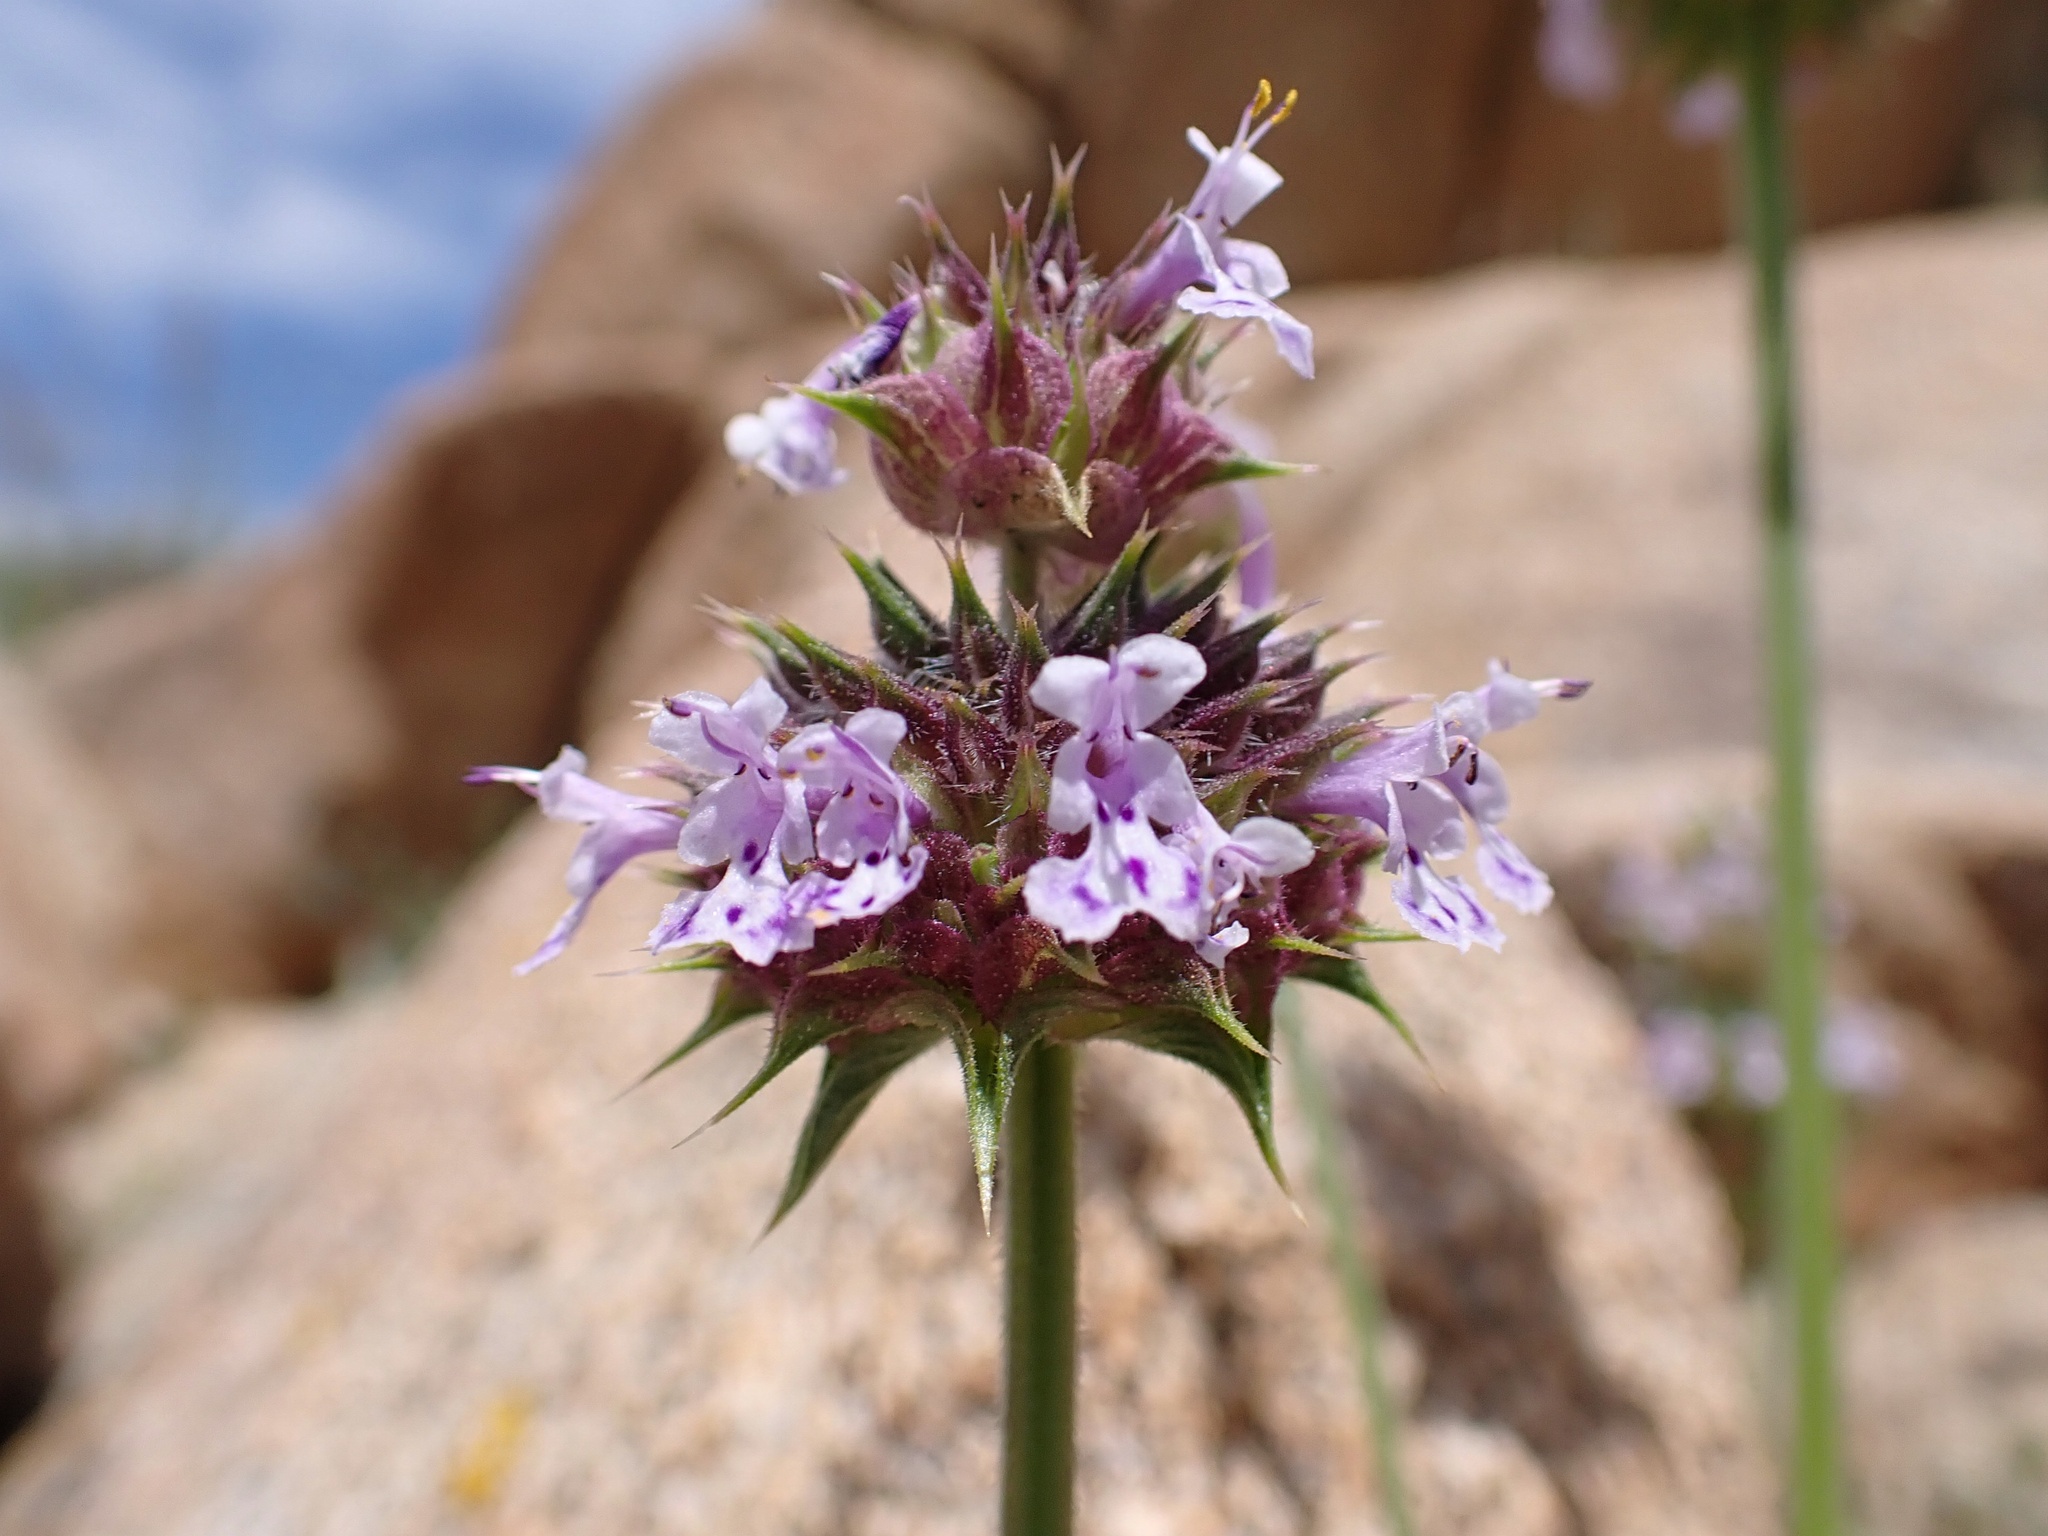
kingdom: Plantae
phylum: Tracheophyta
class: Magnoliopsida
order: Lamiales
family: Lamiaceae
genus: Salvia
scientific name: Salvia columbariae
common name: Chia
